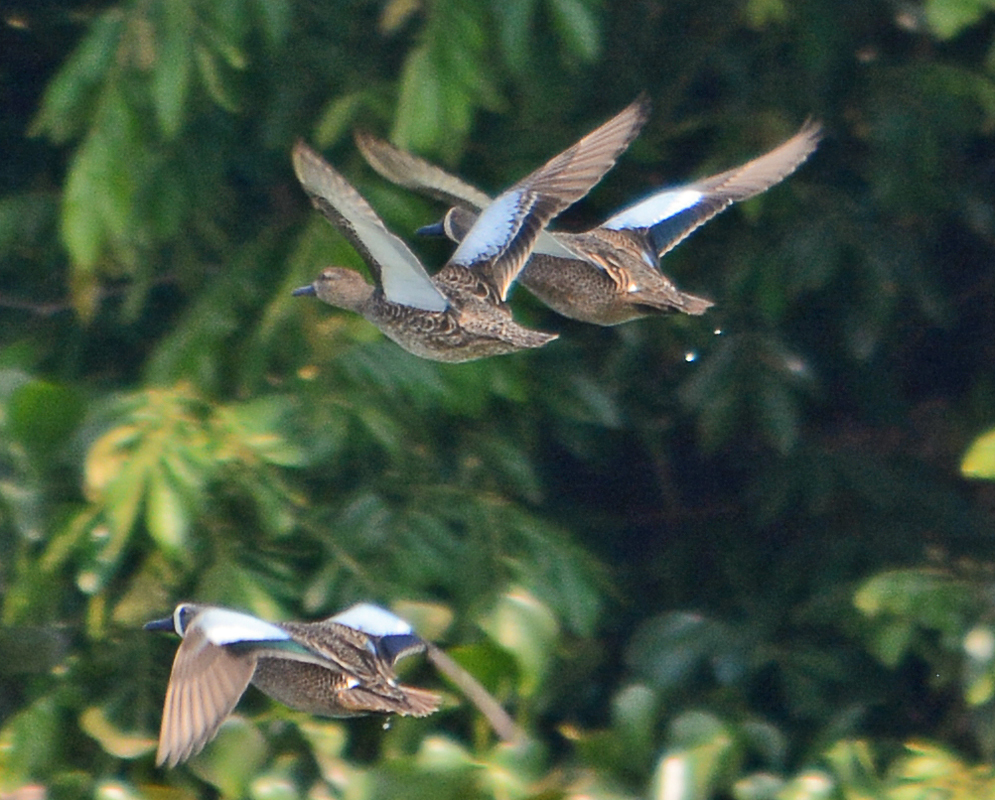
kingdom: Animalia
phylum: Chordata
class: Aves
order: Anseriformes
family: Anatidae
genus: Spatula
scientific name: Spatula discors
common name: Blue-winged teal
